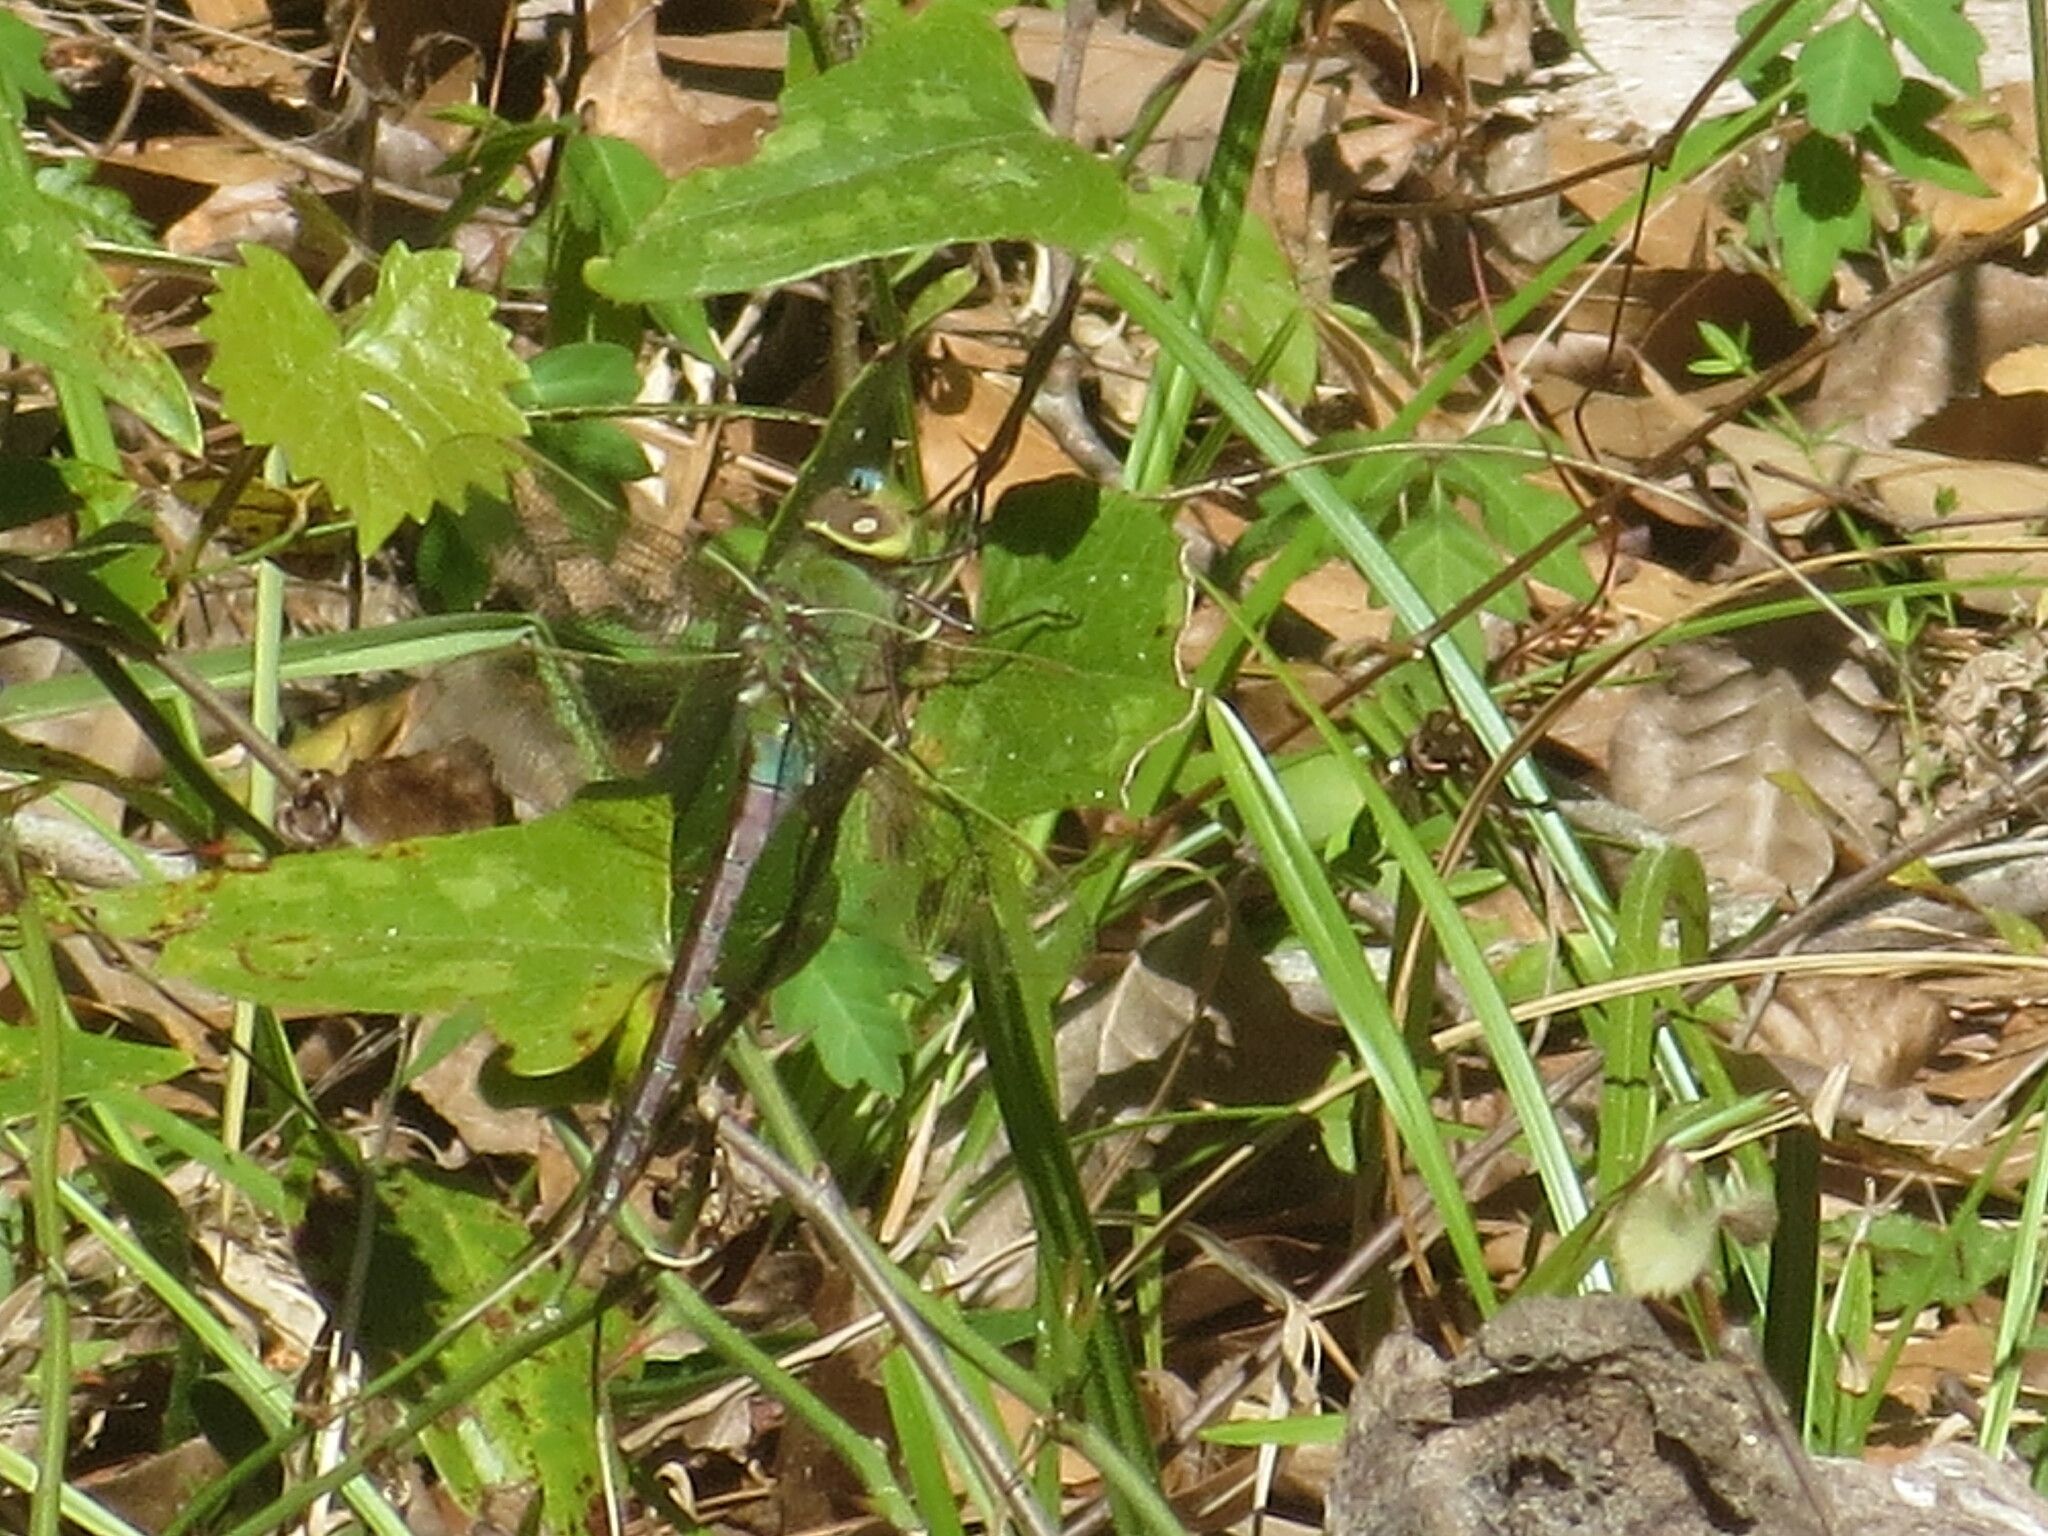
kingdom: Animalia
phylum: Arthropoda
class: Insecta
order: Odonata
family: Aeshnidae
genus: Anax
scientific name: Anax junius
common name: Common green darner
